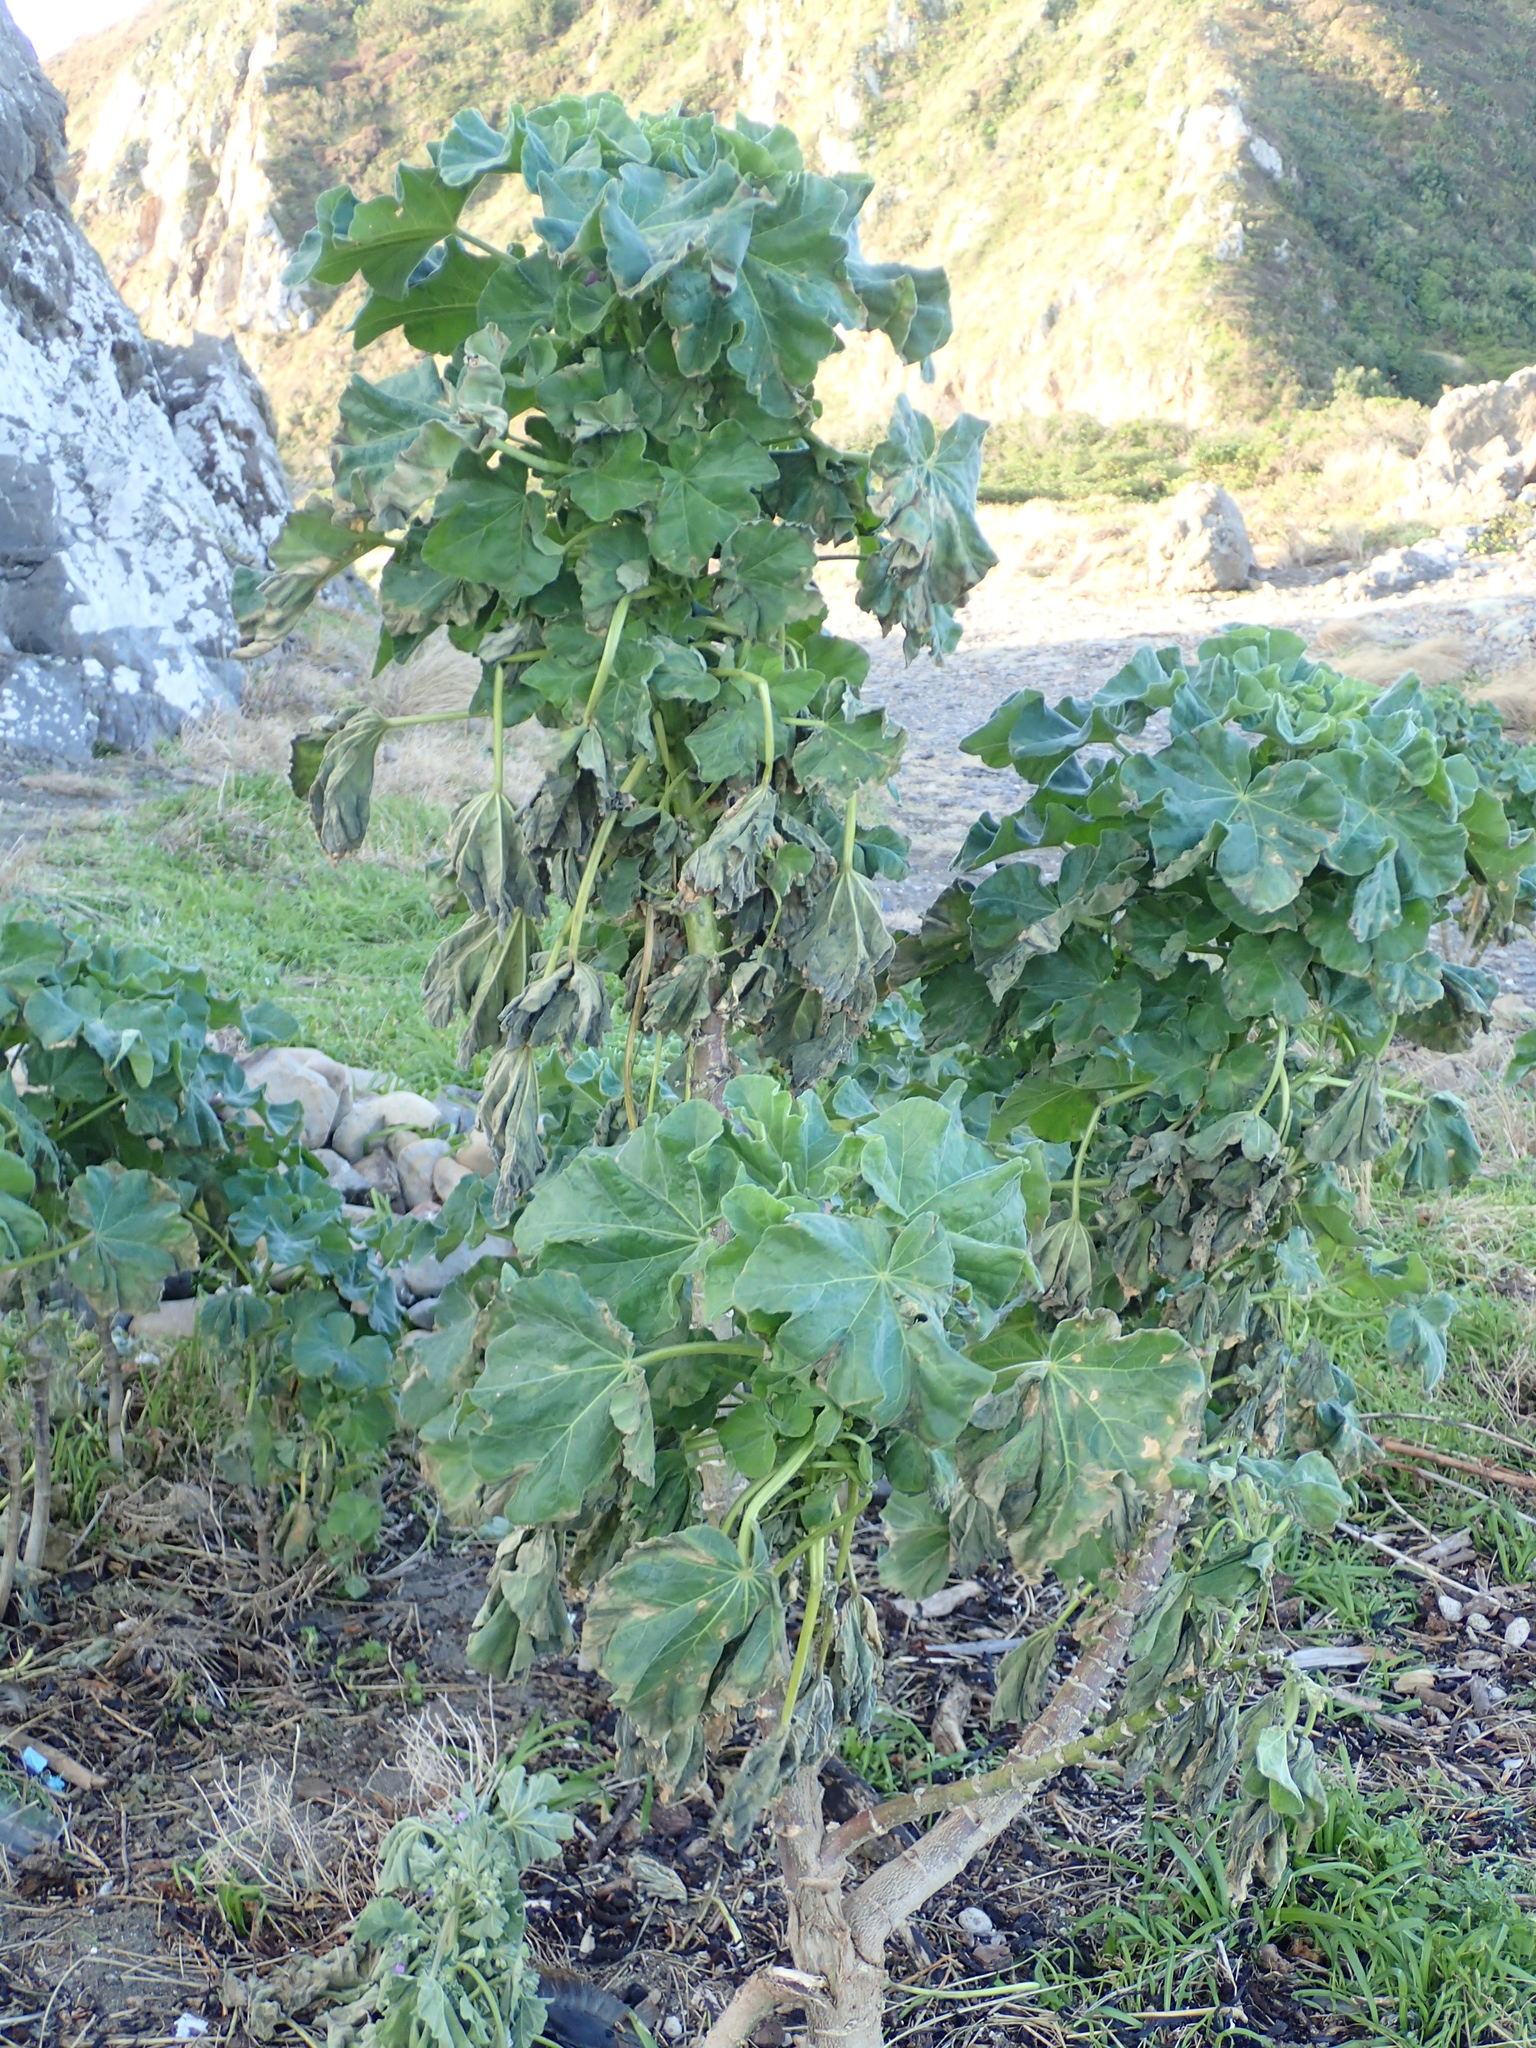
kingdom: Plantae
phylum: Tracheophyta
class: Magnoliopsida
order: Malvales
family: Malvaceae
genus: Malva
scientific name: Malva arborea
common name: Tree mallow
